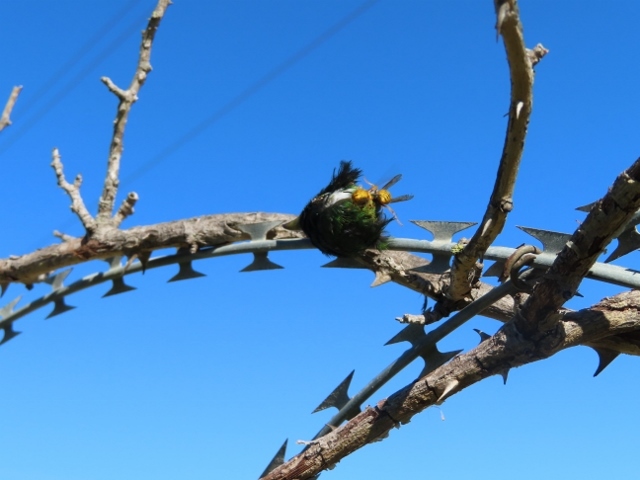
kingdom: Animalia
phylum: Chordata
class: Aves
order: Cuculiformes
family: Cuculidae
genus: Chrysococcyx
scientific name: Chrysococcyx klaas
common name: Klaas's cuckoo
